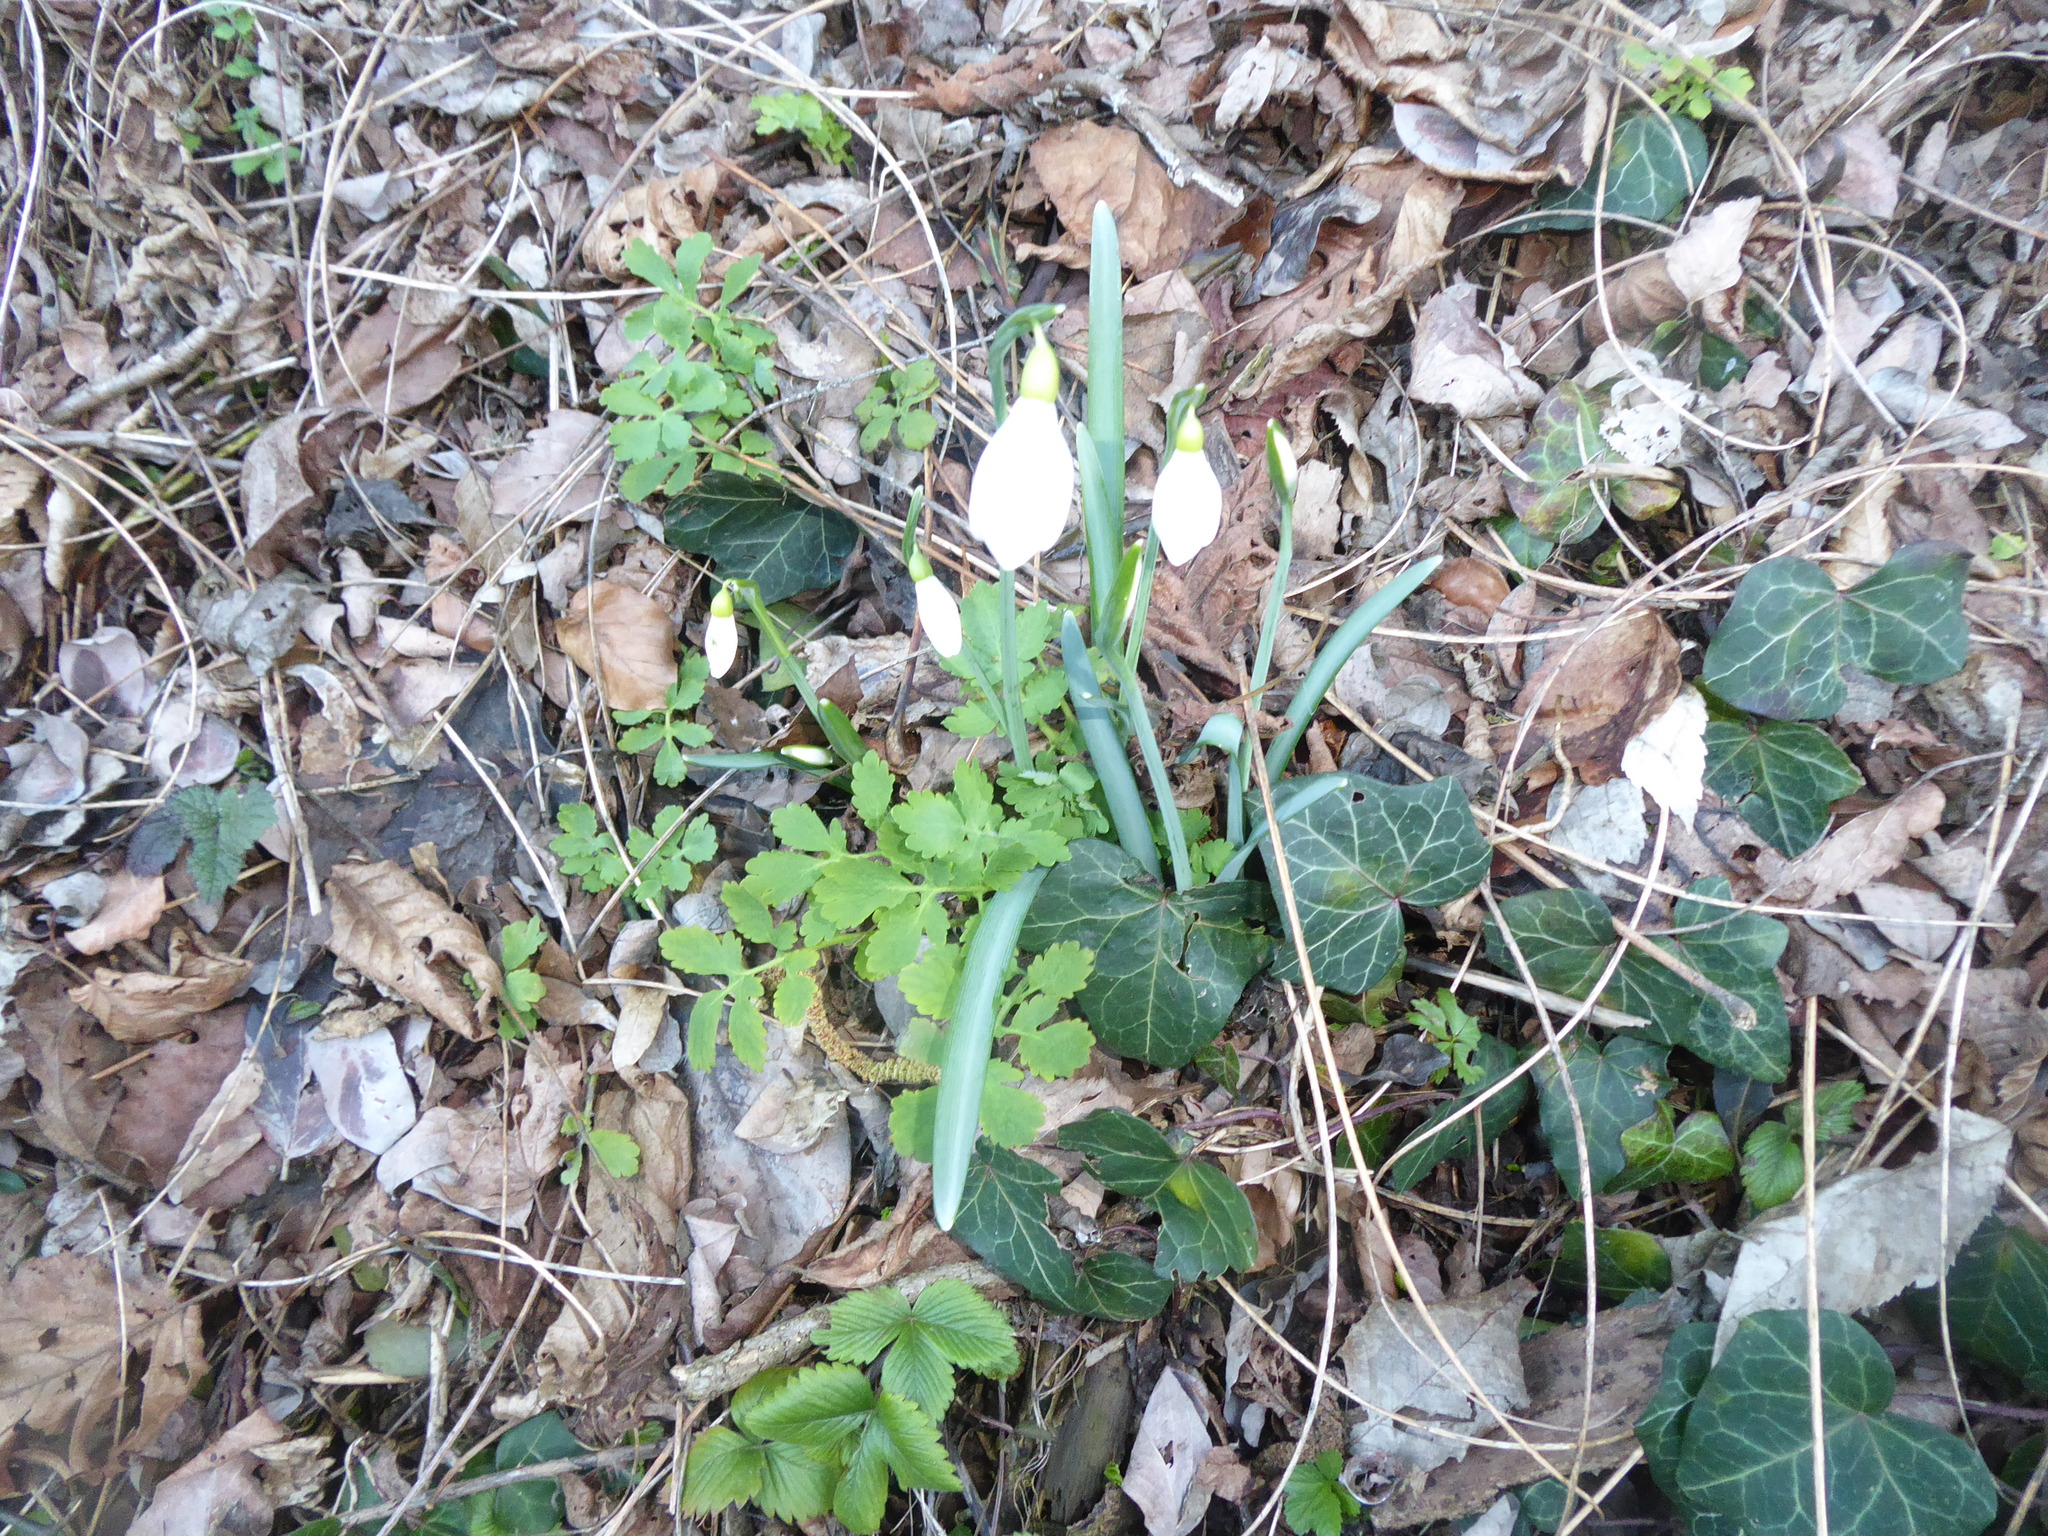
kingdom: Plantae
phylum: Tracheophyta
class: Liliopsida
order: Asparagales
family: Amaryllidaceae
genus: Galanthus
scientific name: Galanthus nivalis
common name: Snowdrop
